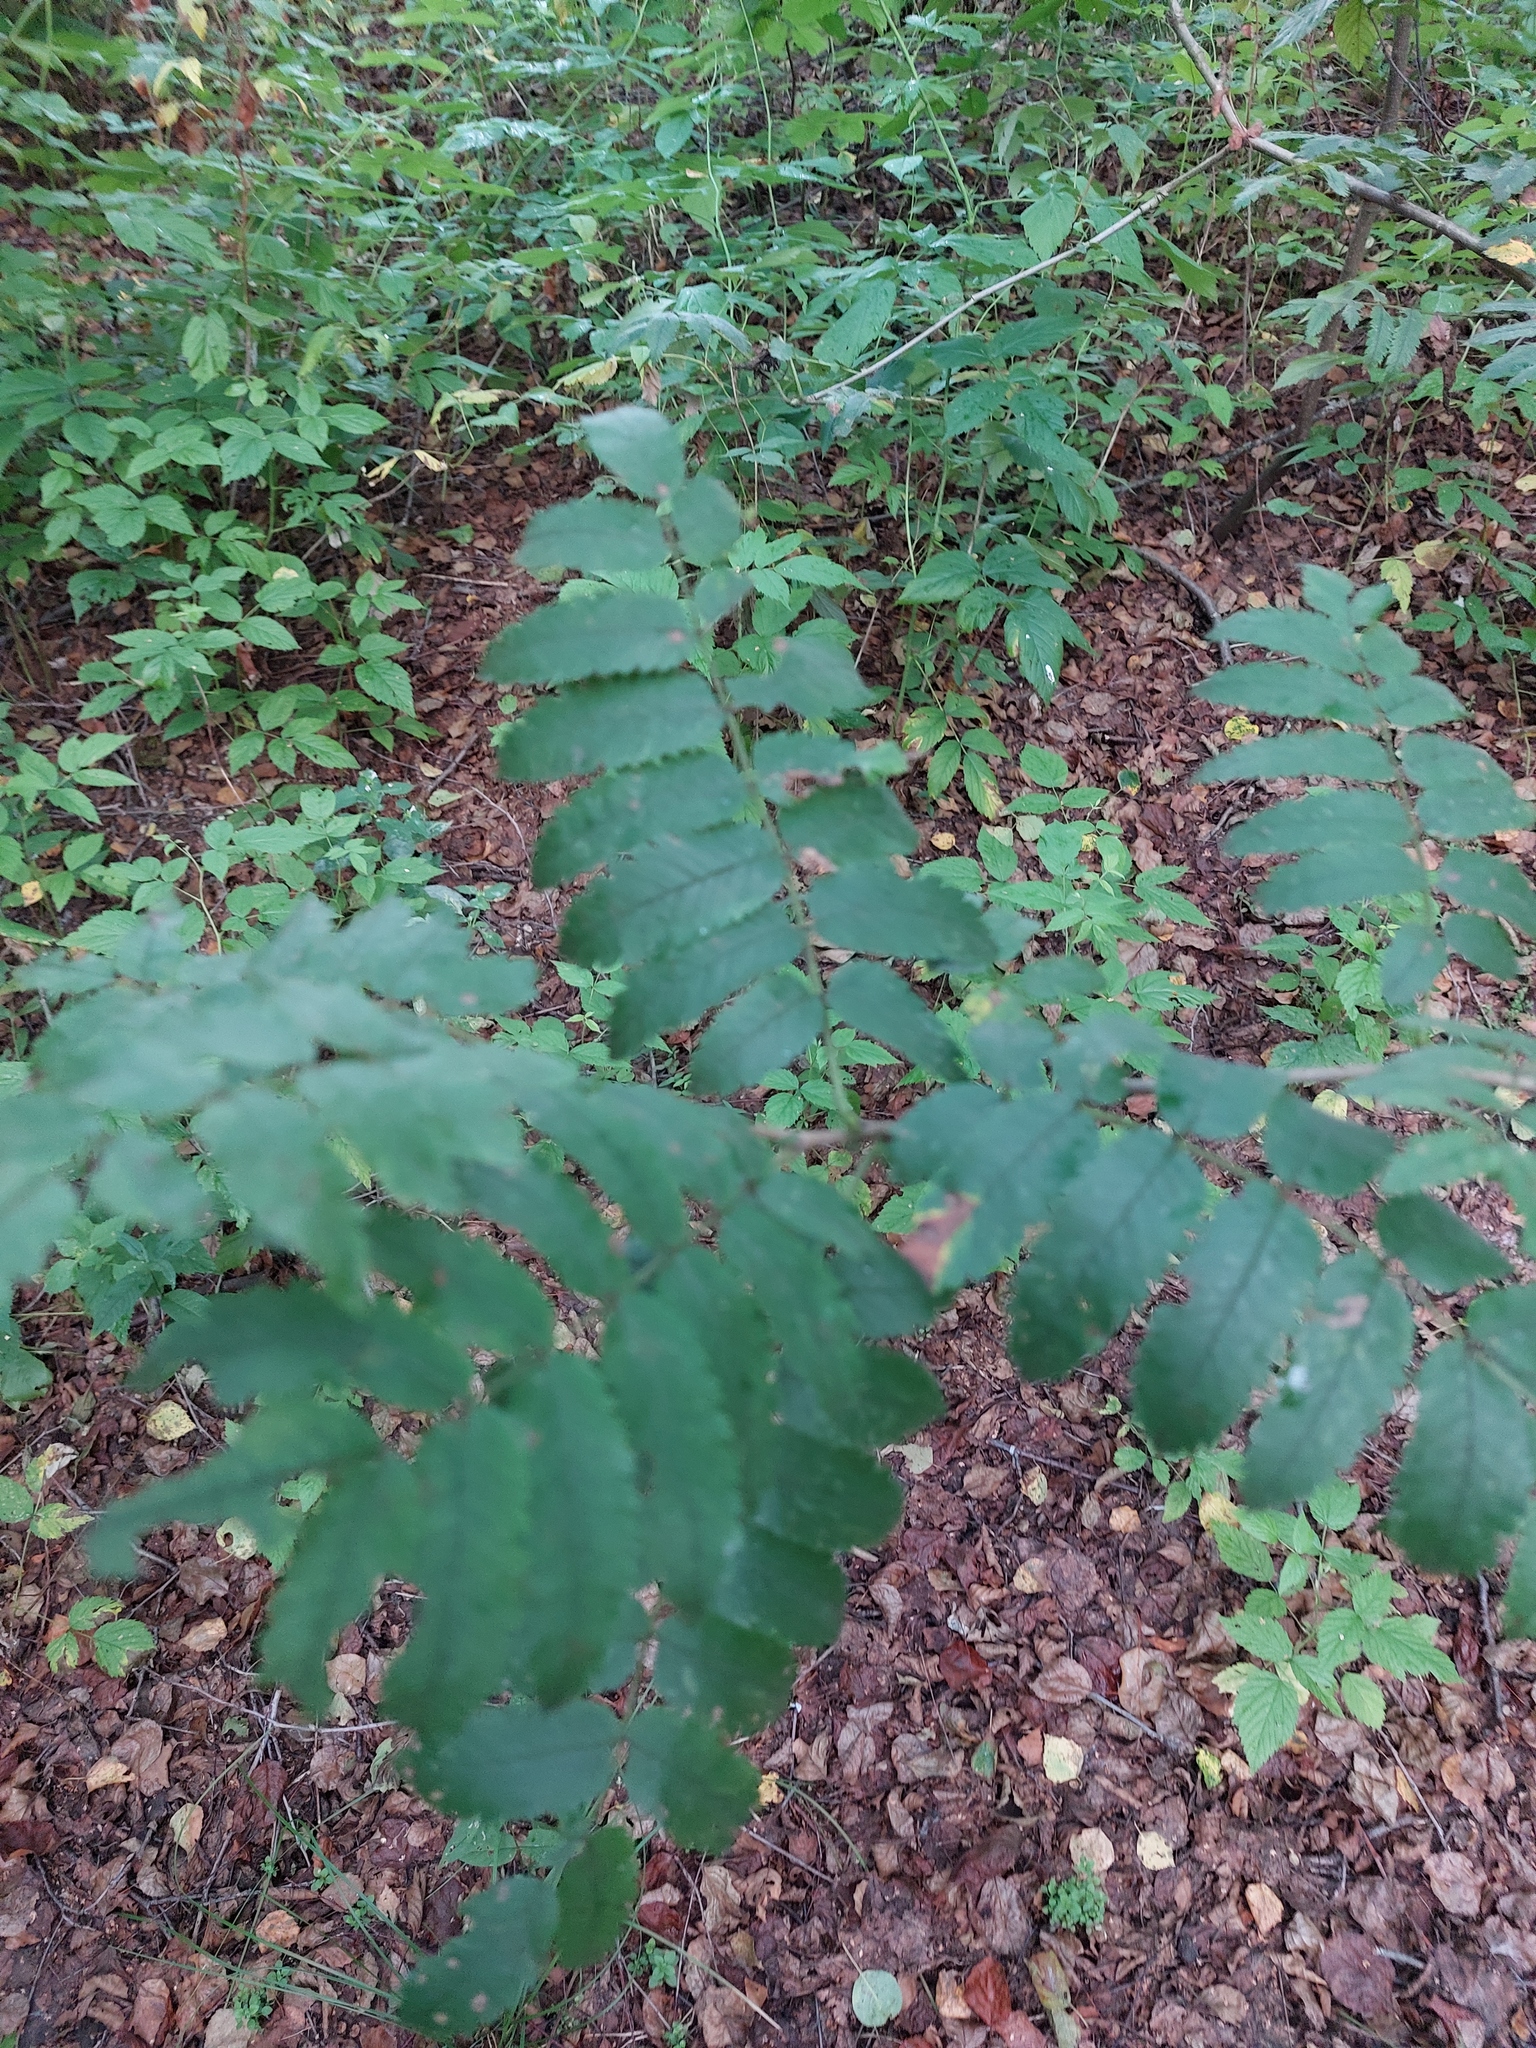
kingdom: Plantae
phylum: Tracheophyta
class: Magnoliopsida
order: Rosales
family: Rosaceae
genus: Sorbus
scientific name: Sorbus aucuparia
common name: Rowan
